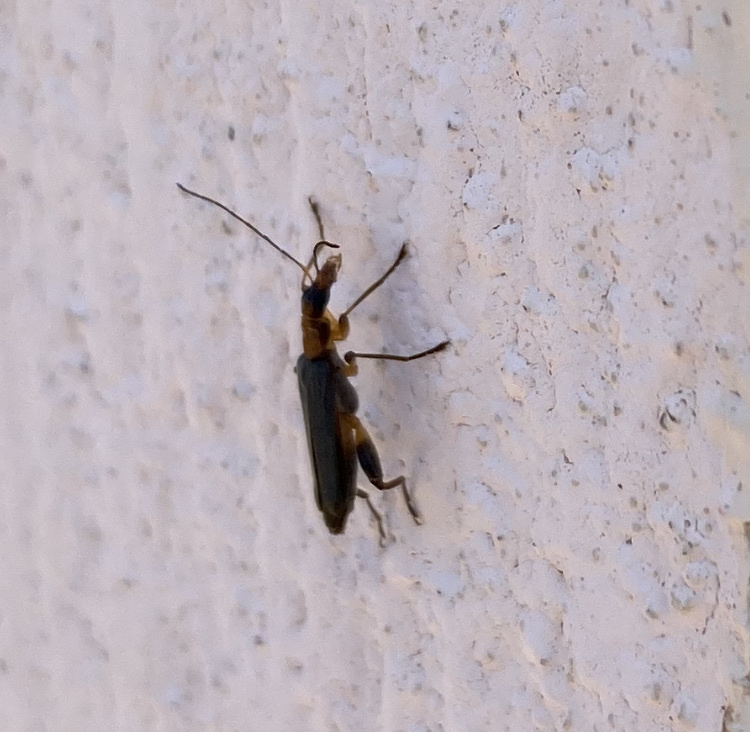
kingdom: Animalia
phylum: Arthropoda
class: Insecta
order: Coleoptera
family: Oedemeridae
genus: Oedemera
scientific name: Oedemera murinipennis
